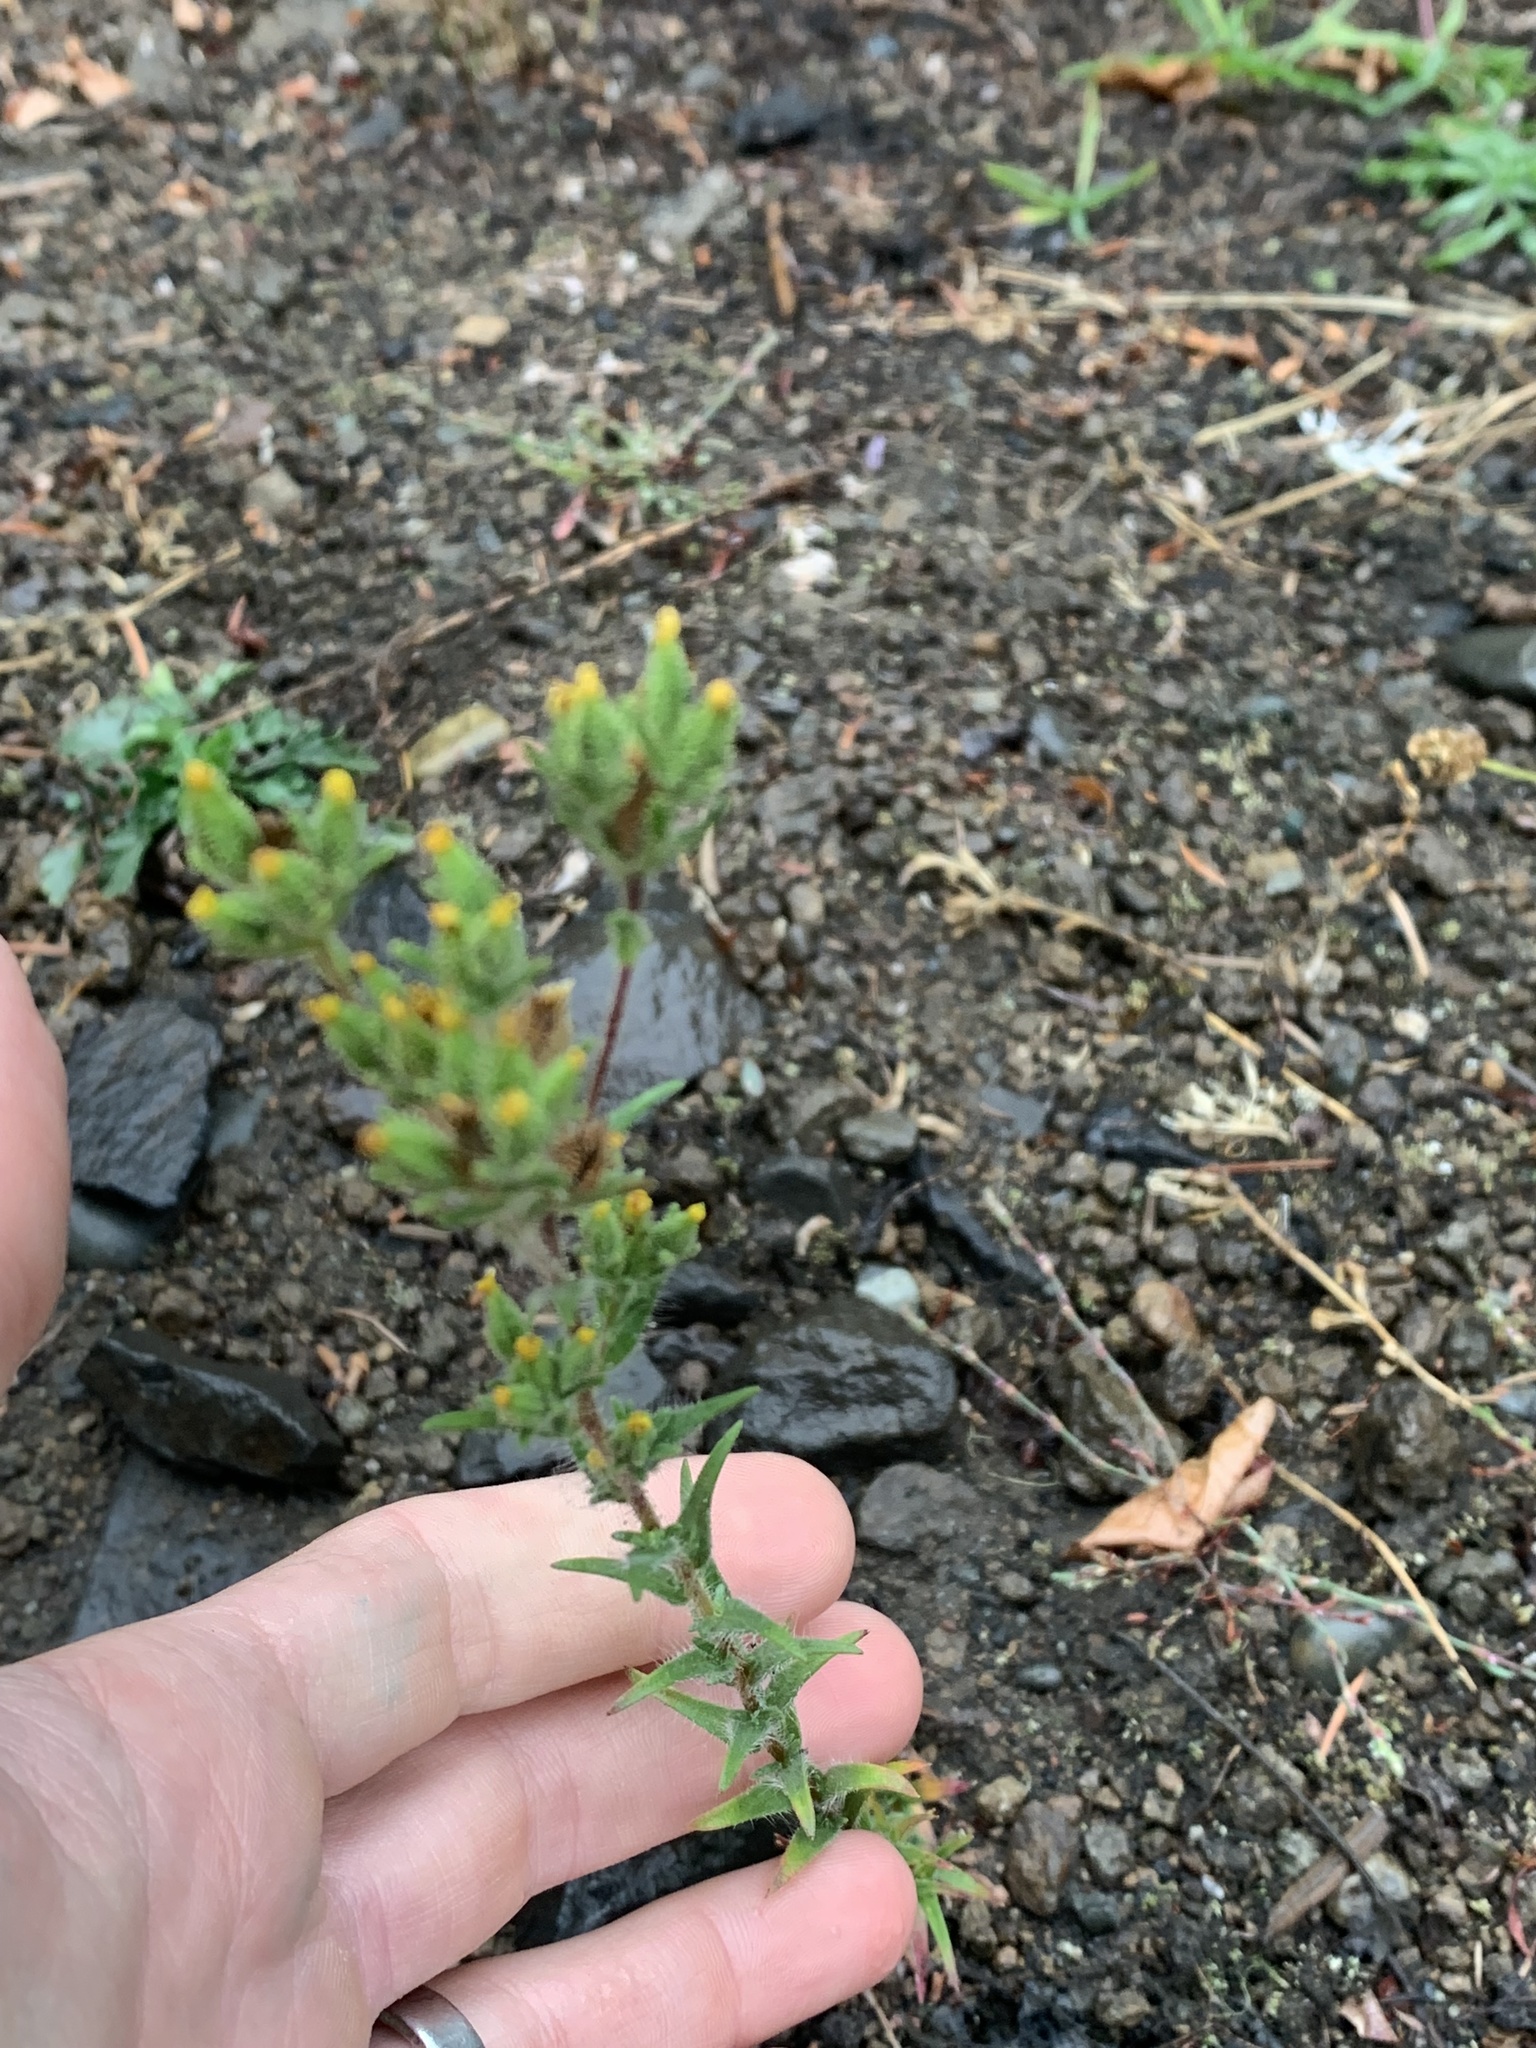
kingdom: Plantae
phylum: Tracheophyta
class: Magnoliopsida
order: Asterales
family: Asteraceae
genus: Madia
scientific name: Madia glomerata
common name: Mountain tarweed
